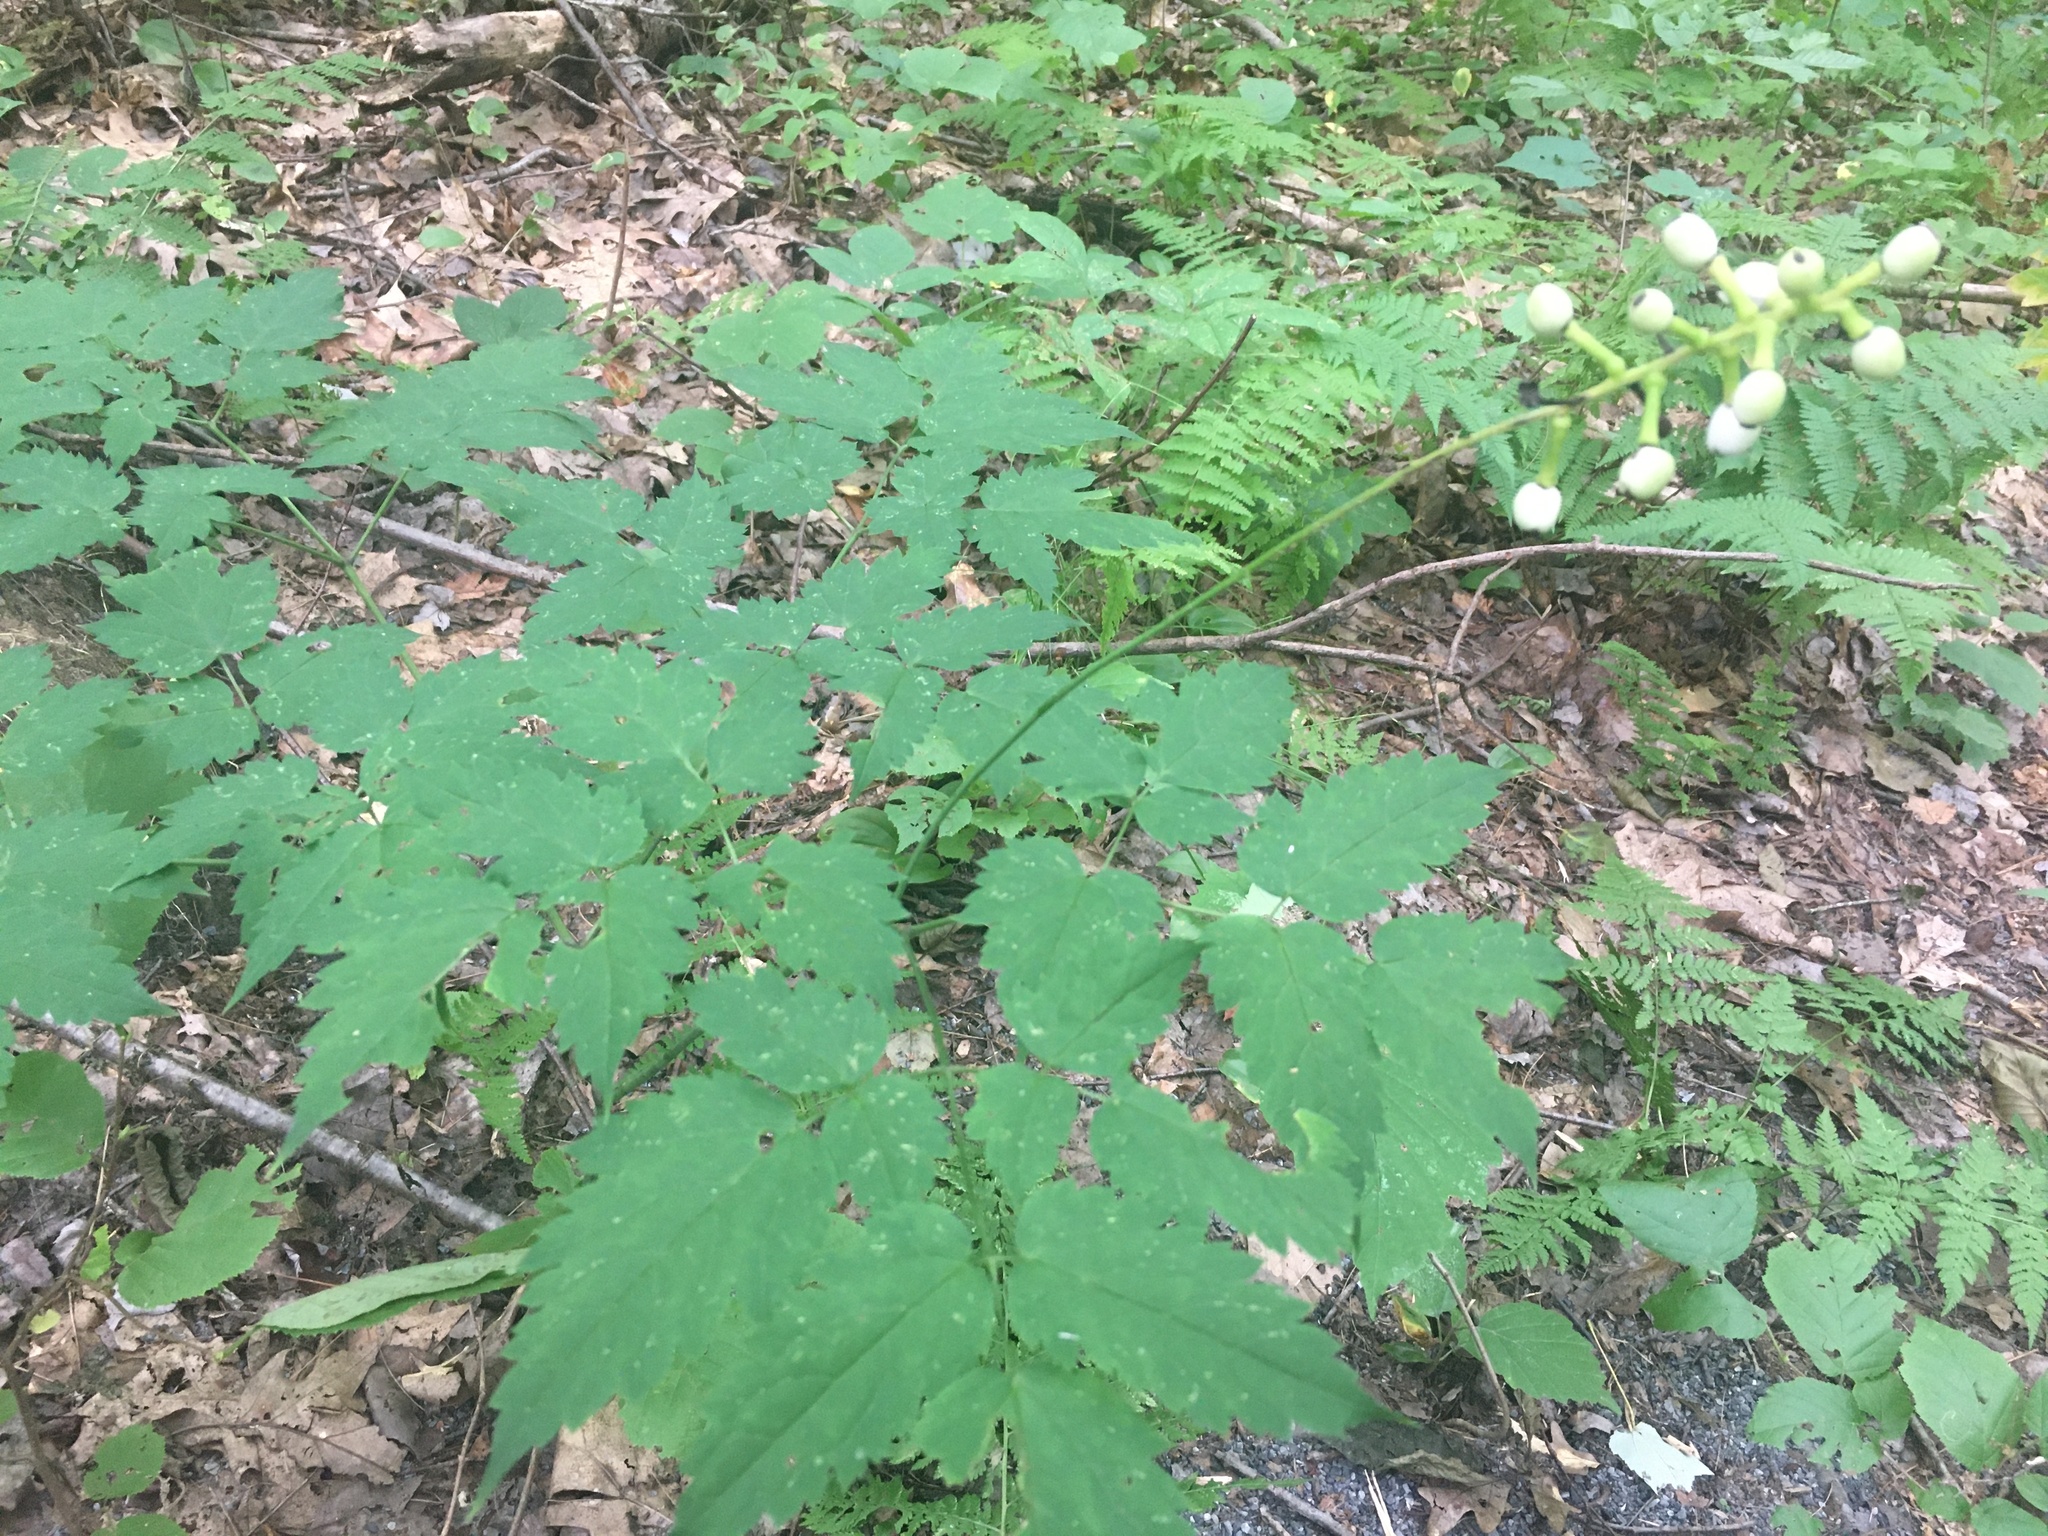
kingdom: Plantae
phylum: Tracheophyta
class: Magnoliopsida
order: Ranunculales
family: Ranunculaceae
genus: Actaea
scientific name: Actaea pachypoda
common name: Doll's-eyes
